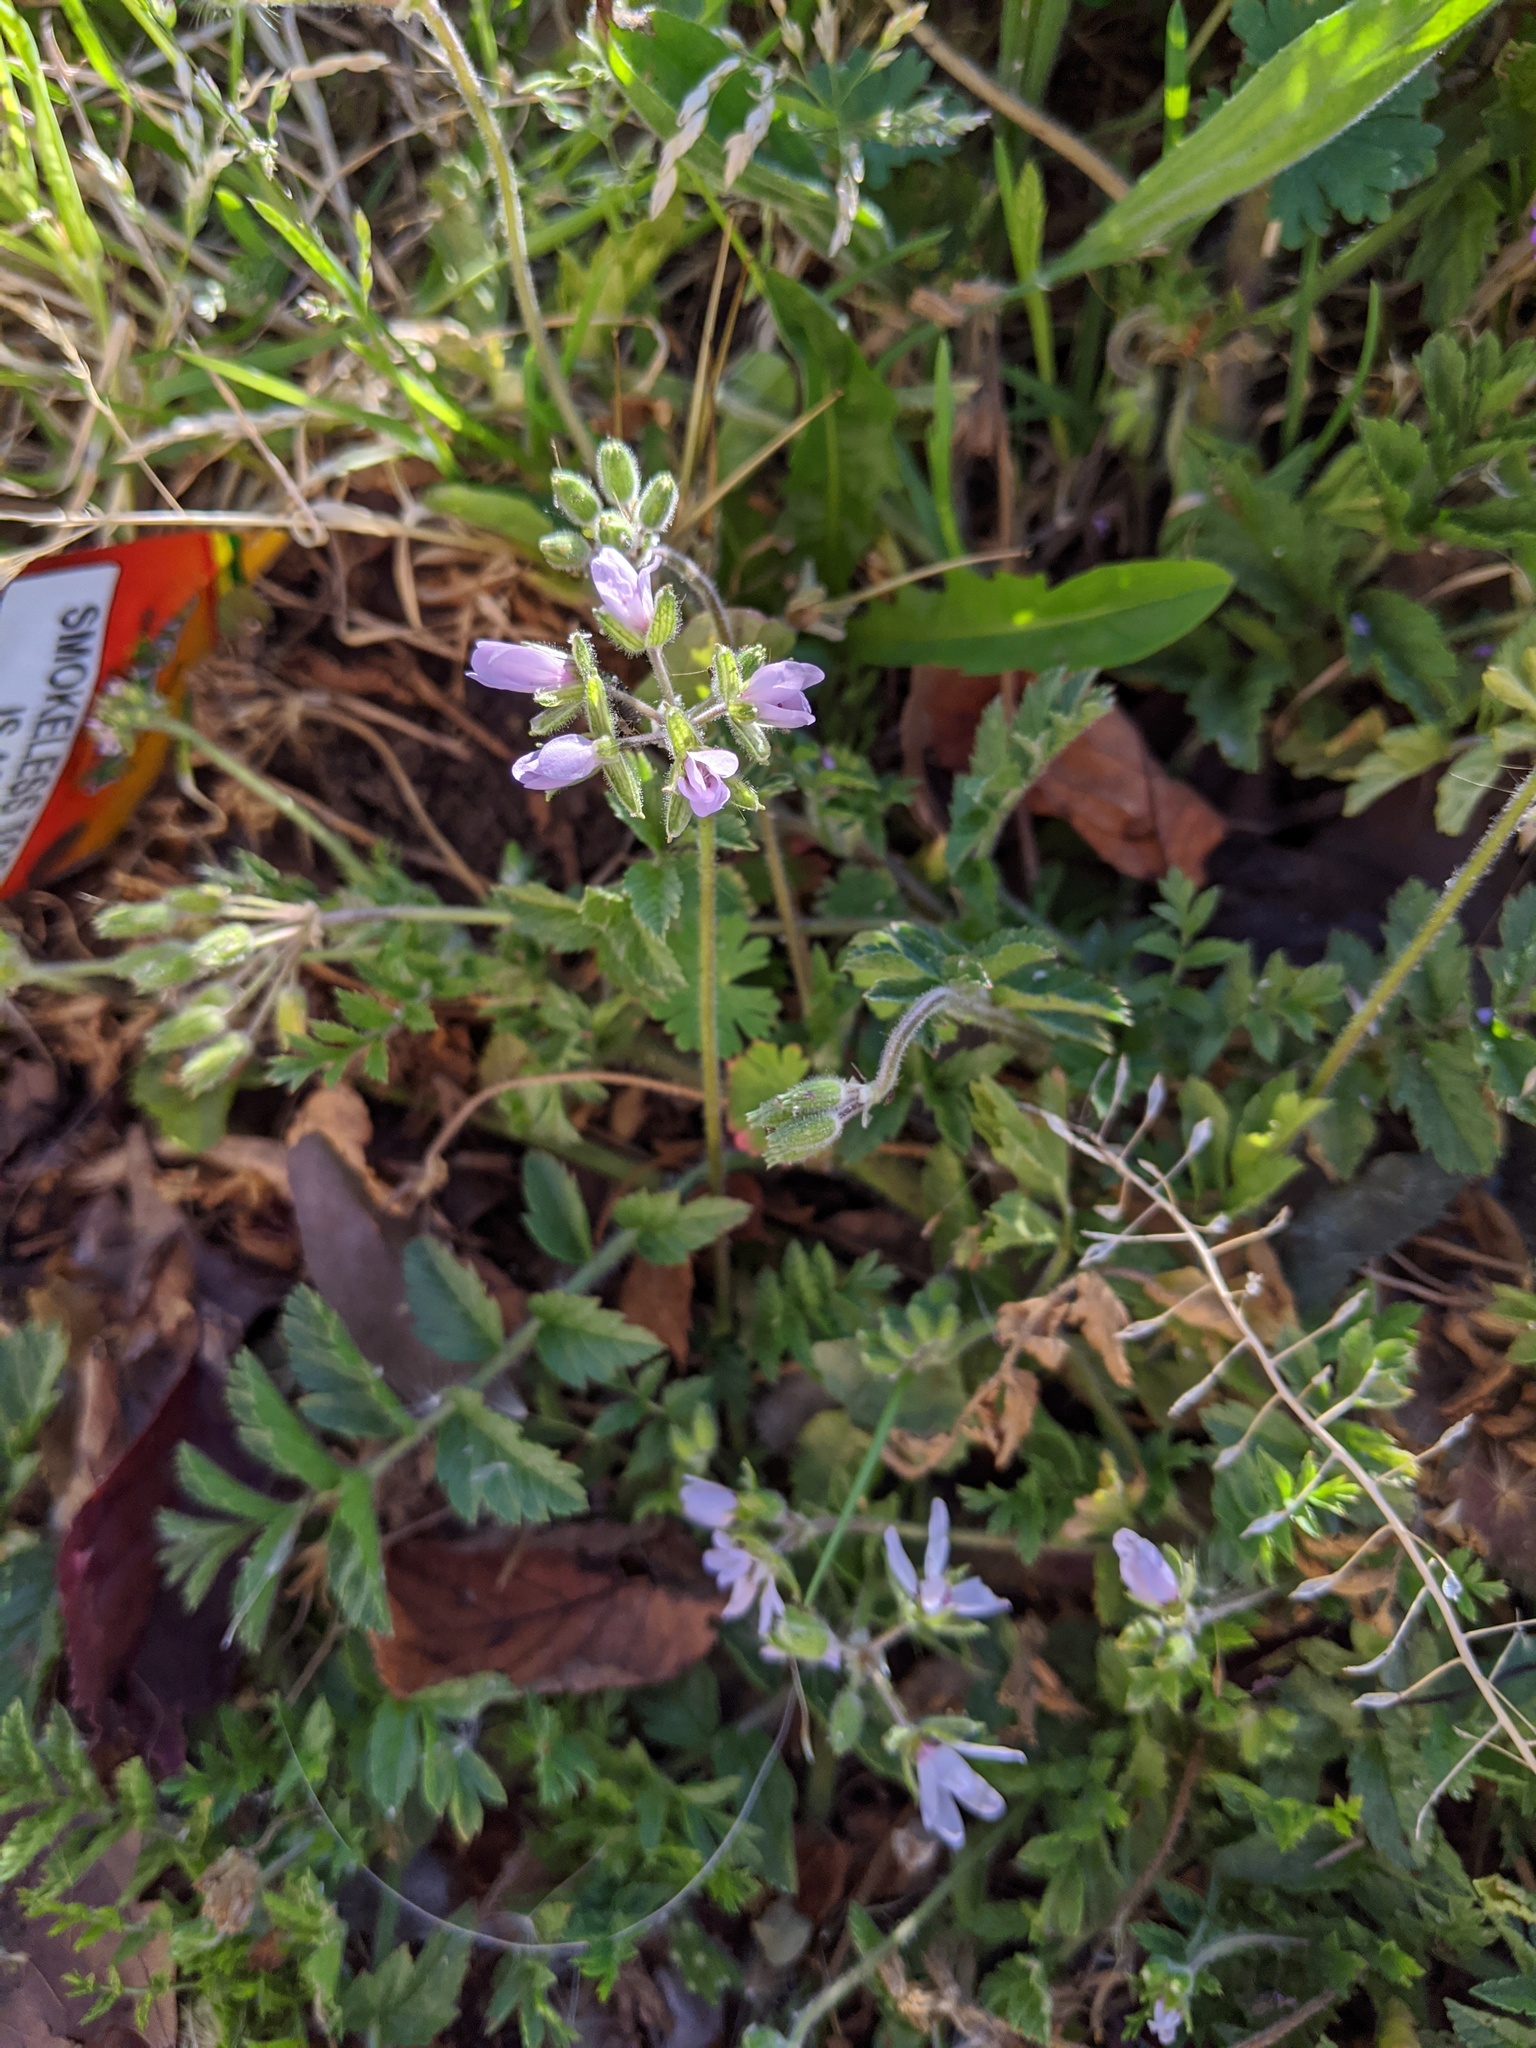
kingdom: Plantae
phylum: Tracheophyta
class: Magnoliopsida
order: Geraniales
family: Geraniaceae
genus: Erodium
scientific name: Erodium moschatum
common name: Musk stork's-bill
